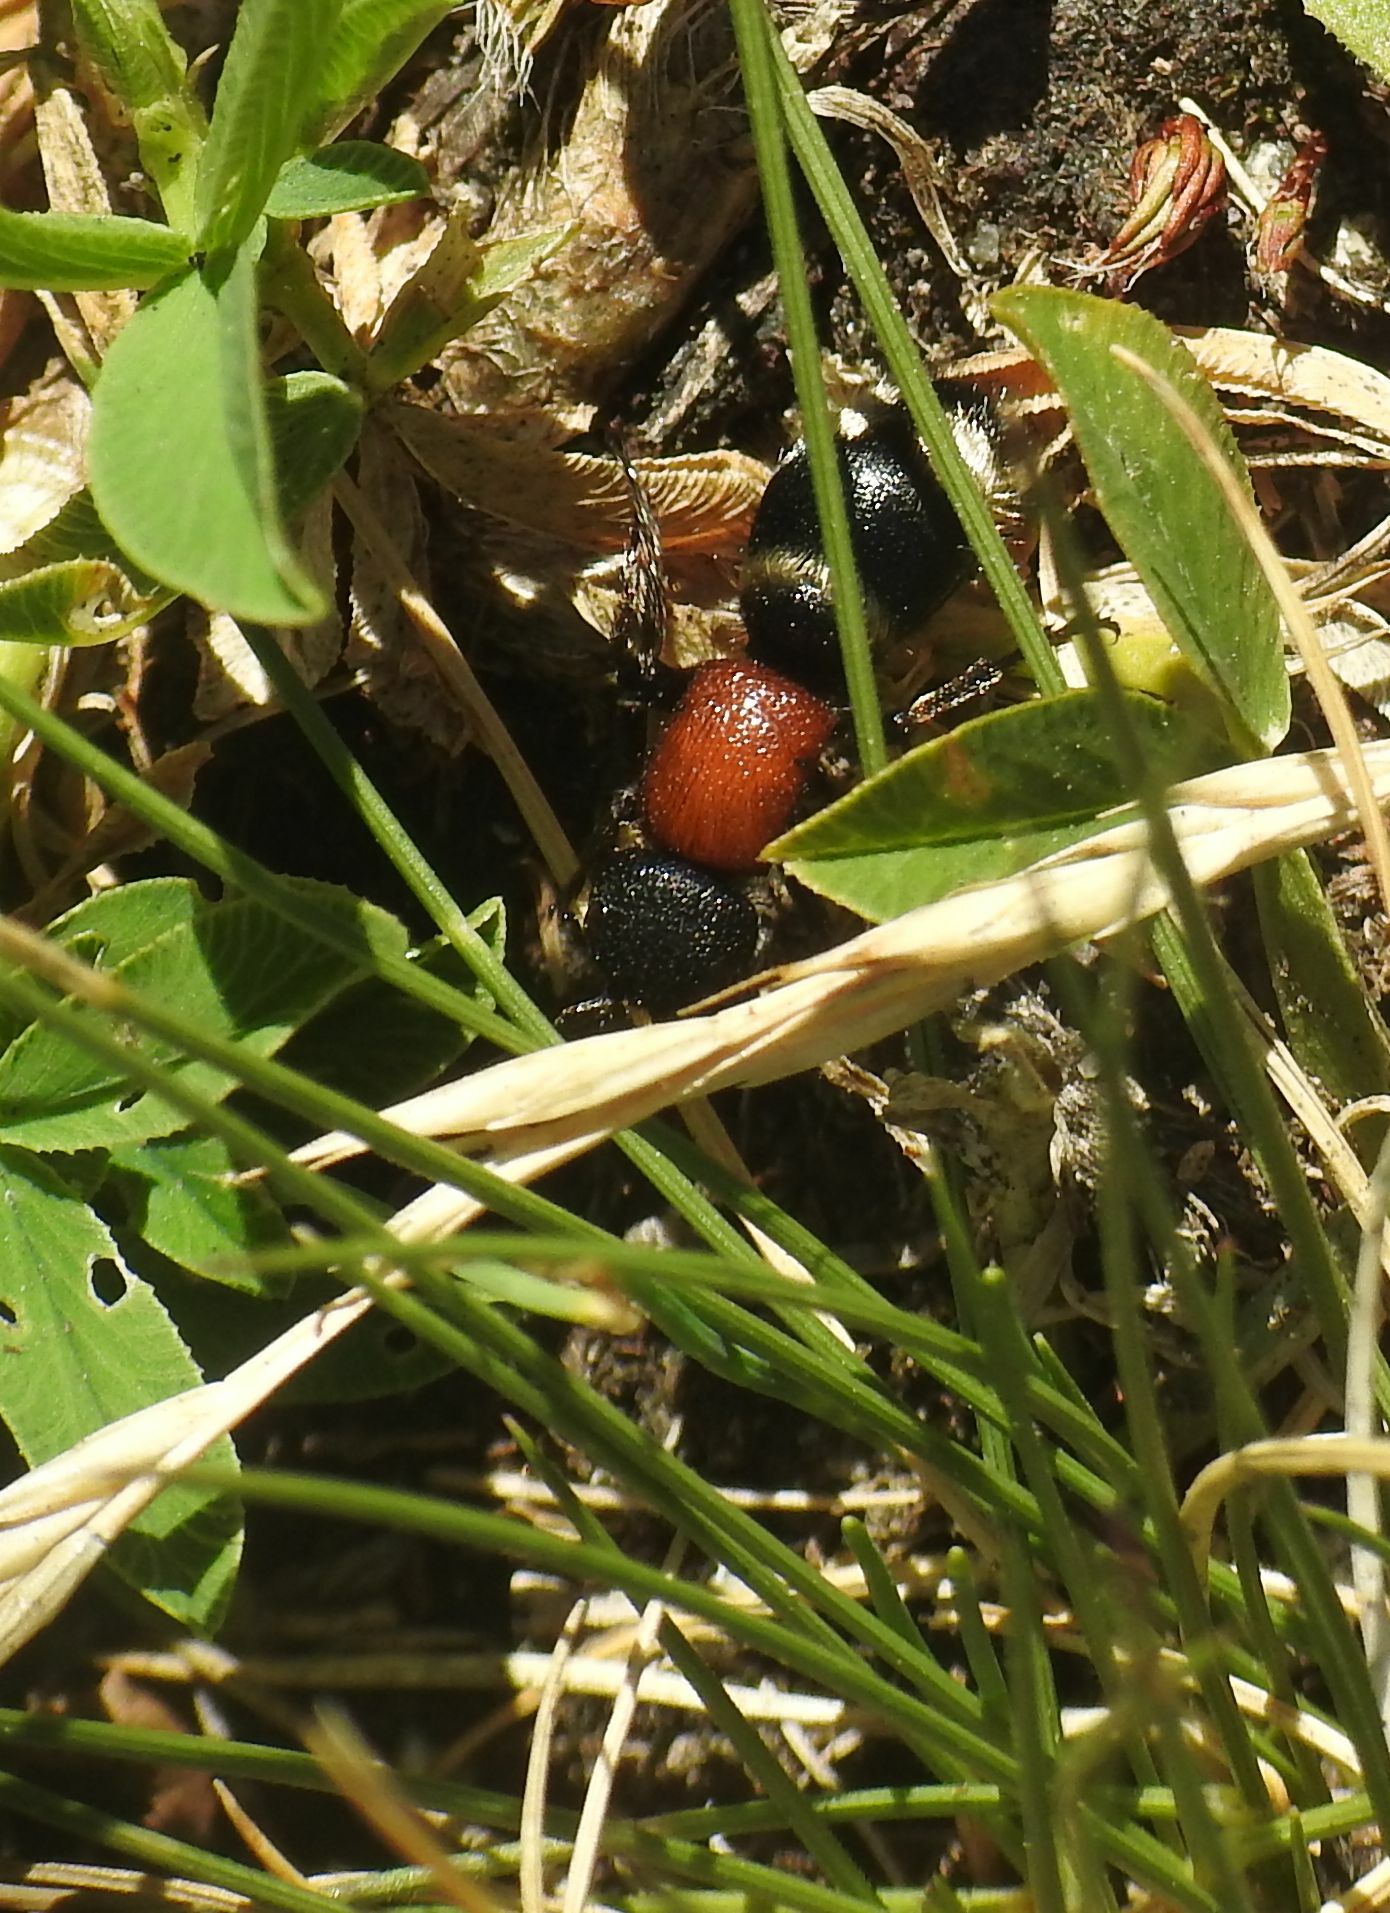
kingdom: Animalia
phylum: Arthropoda
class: Insecta
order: Hymenoptera
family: Mutillidae
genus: Mutilla
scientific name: Mutilla europaea
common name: Large velvet ant
